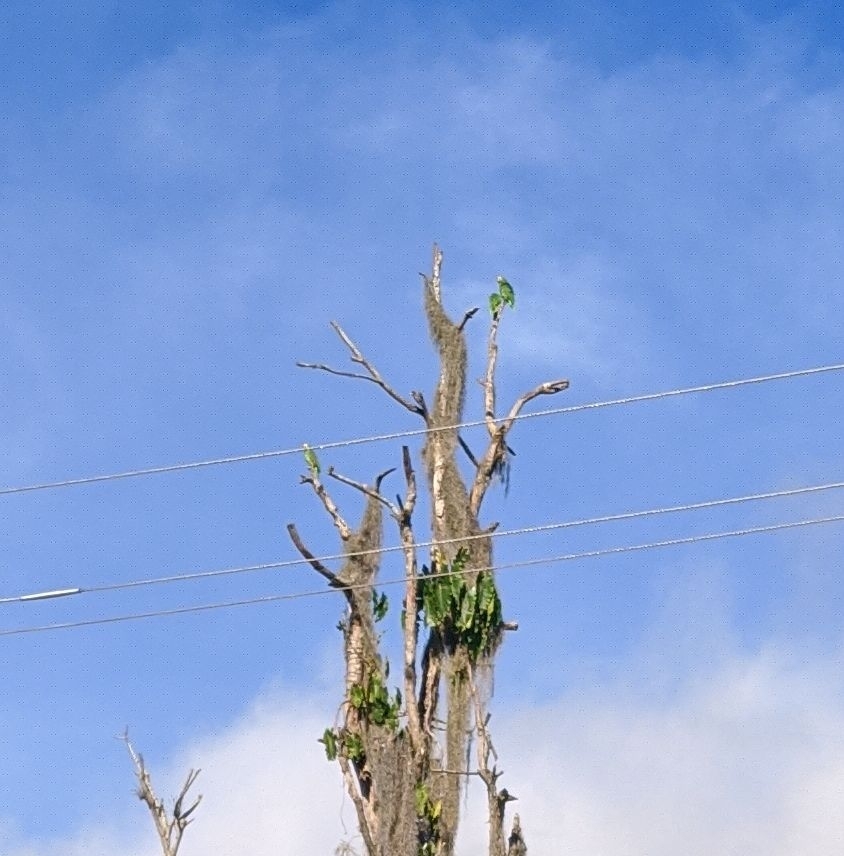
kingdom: Animalia
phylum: Chordata
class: Aves
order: Psittaciformes
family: Psittacidae
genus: Amazona
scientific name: Amazona ochrocephala
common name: Yellow-crowned amazon
